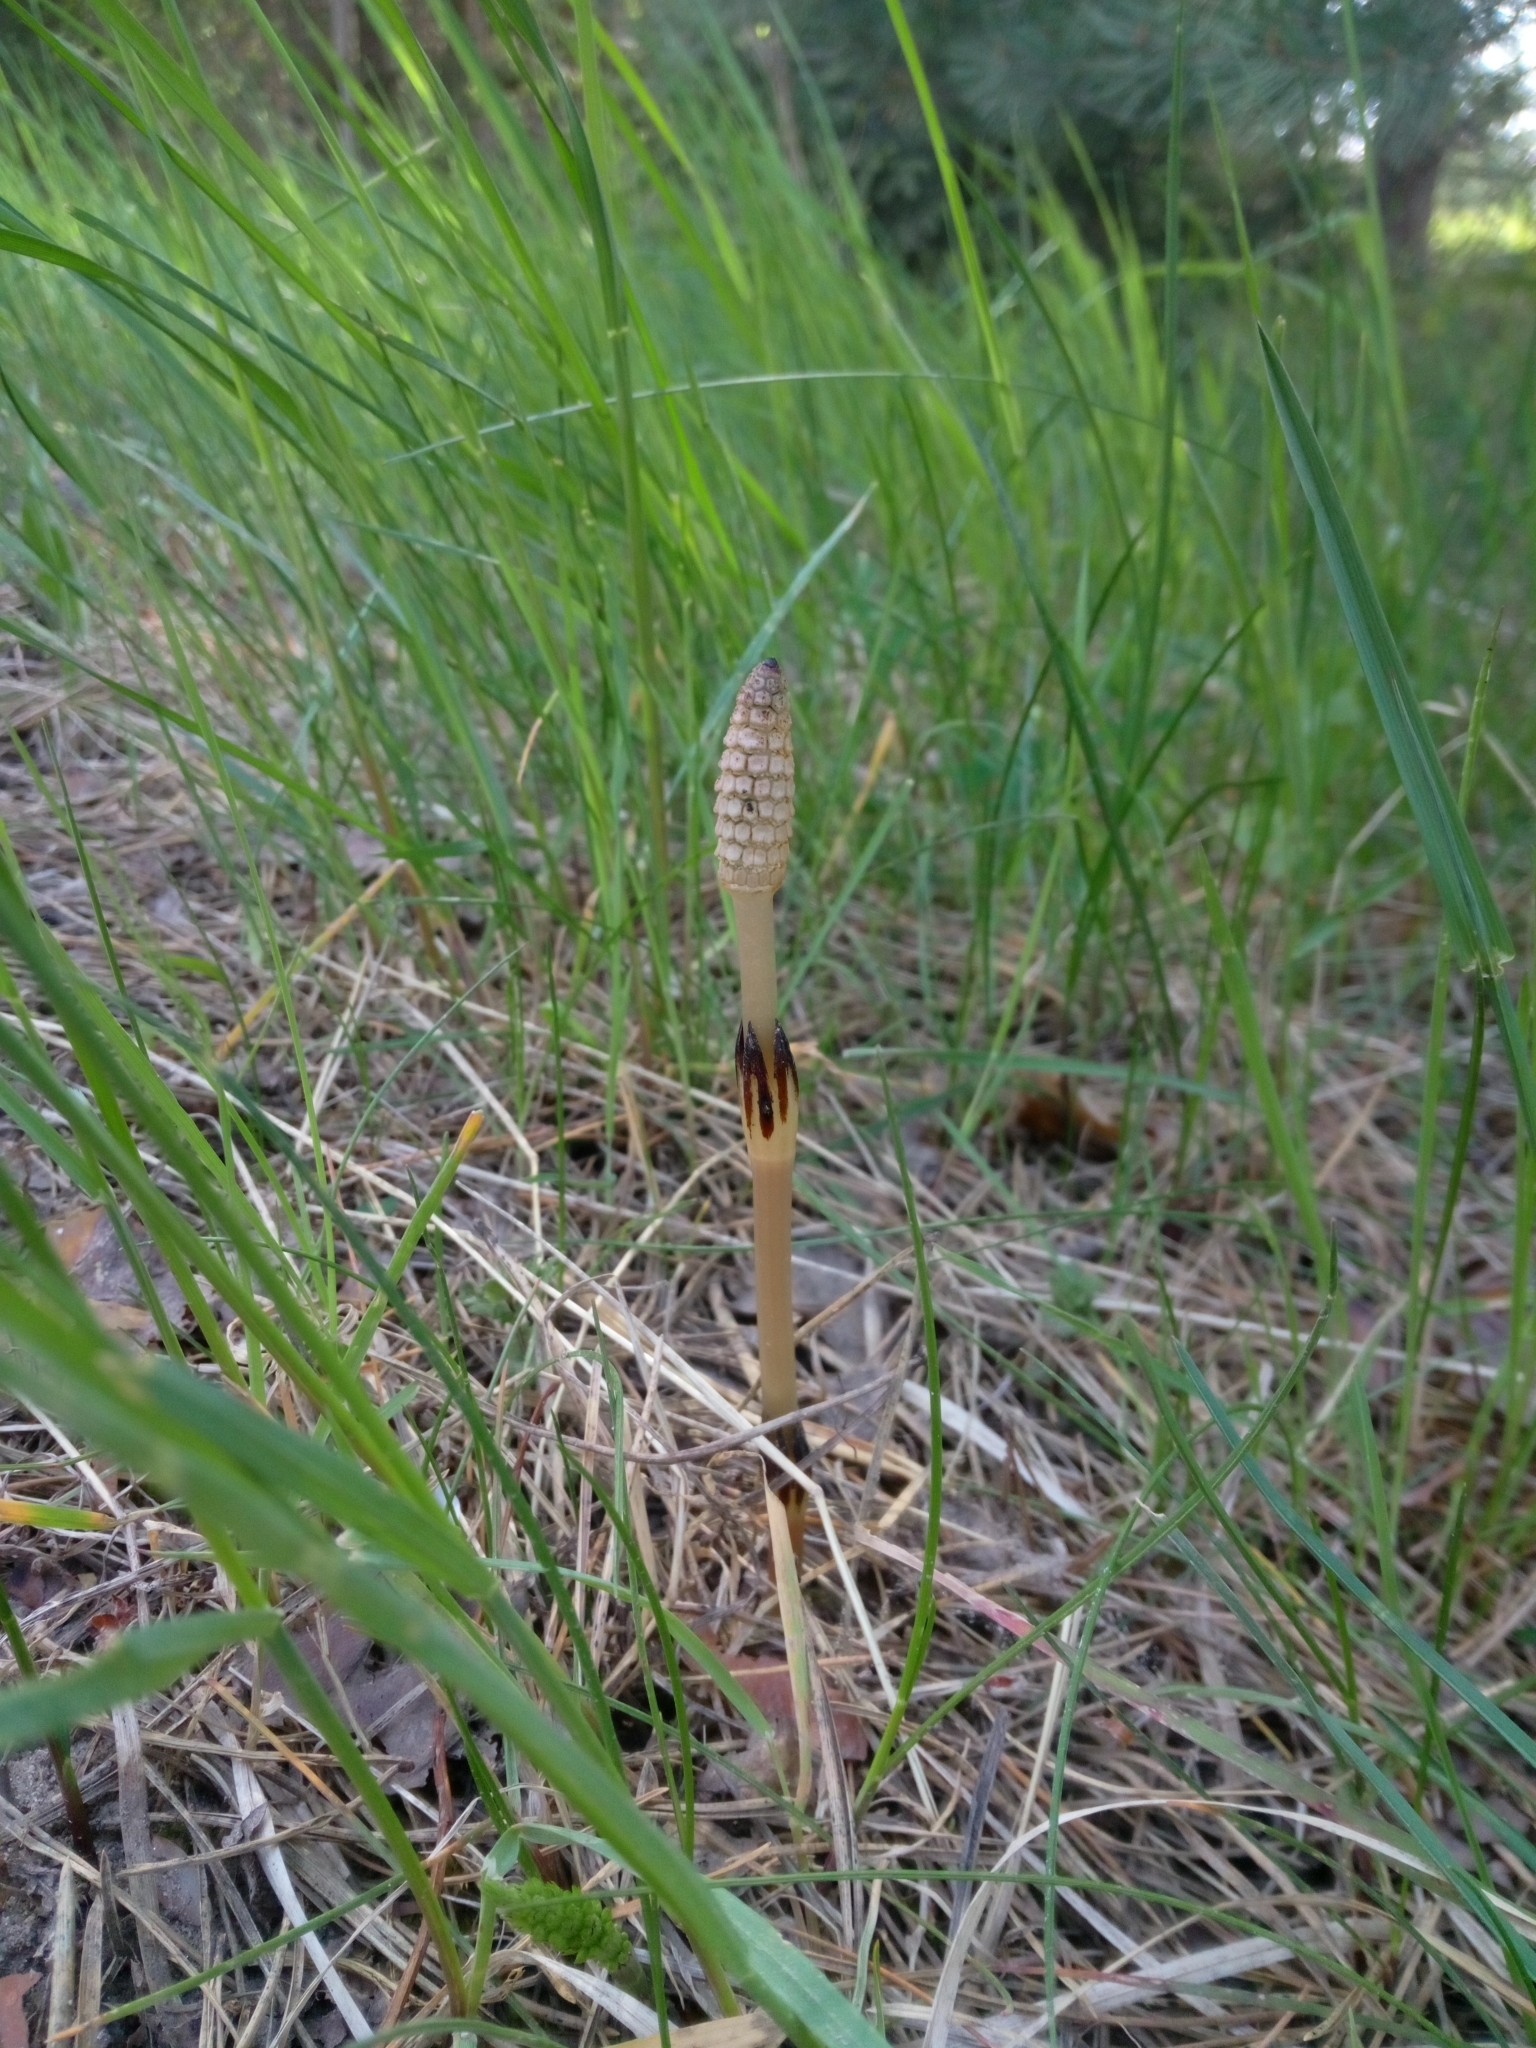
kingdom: Plantae
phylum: Tracheophyta
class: Polypodiopsida
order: Equisetales
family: Equisetaceae
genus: Equisetum
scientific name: Equisetum arvense
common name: Field horsetail
